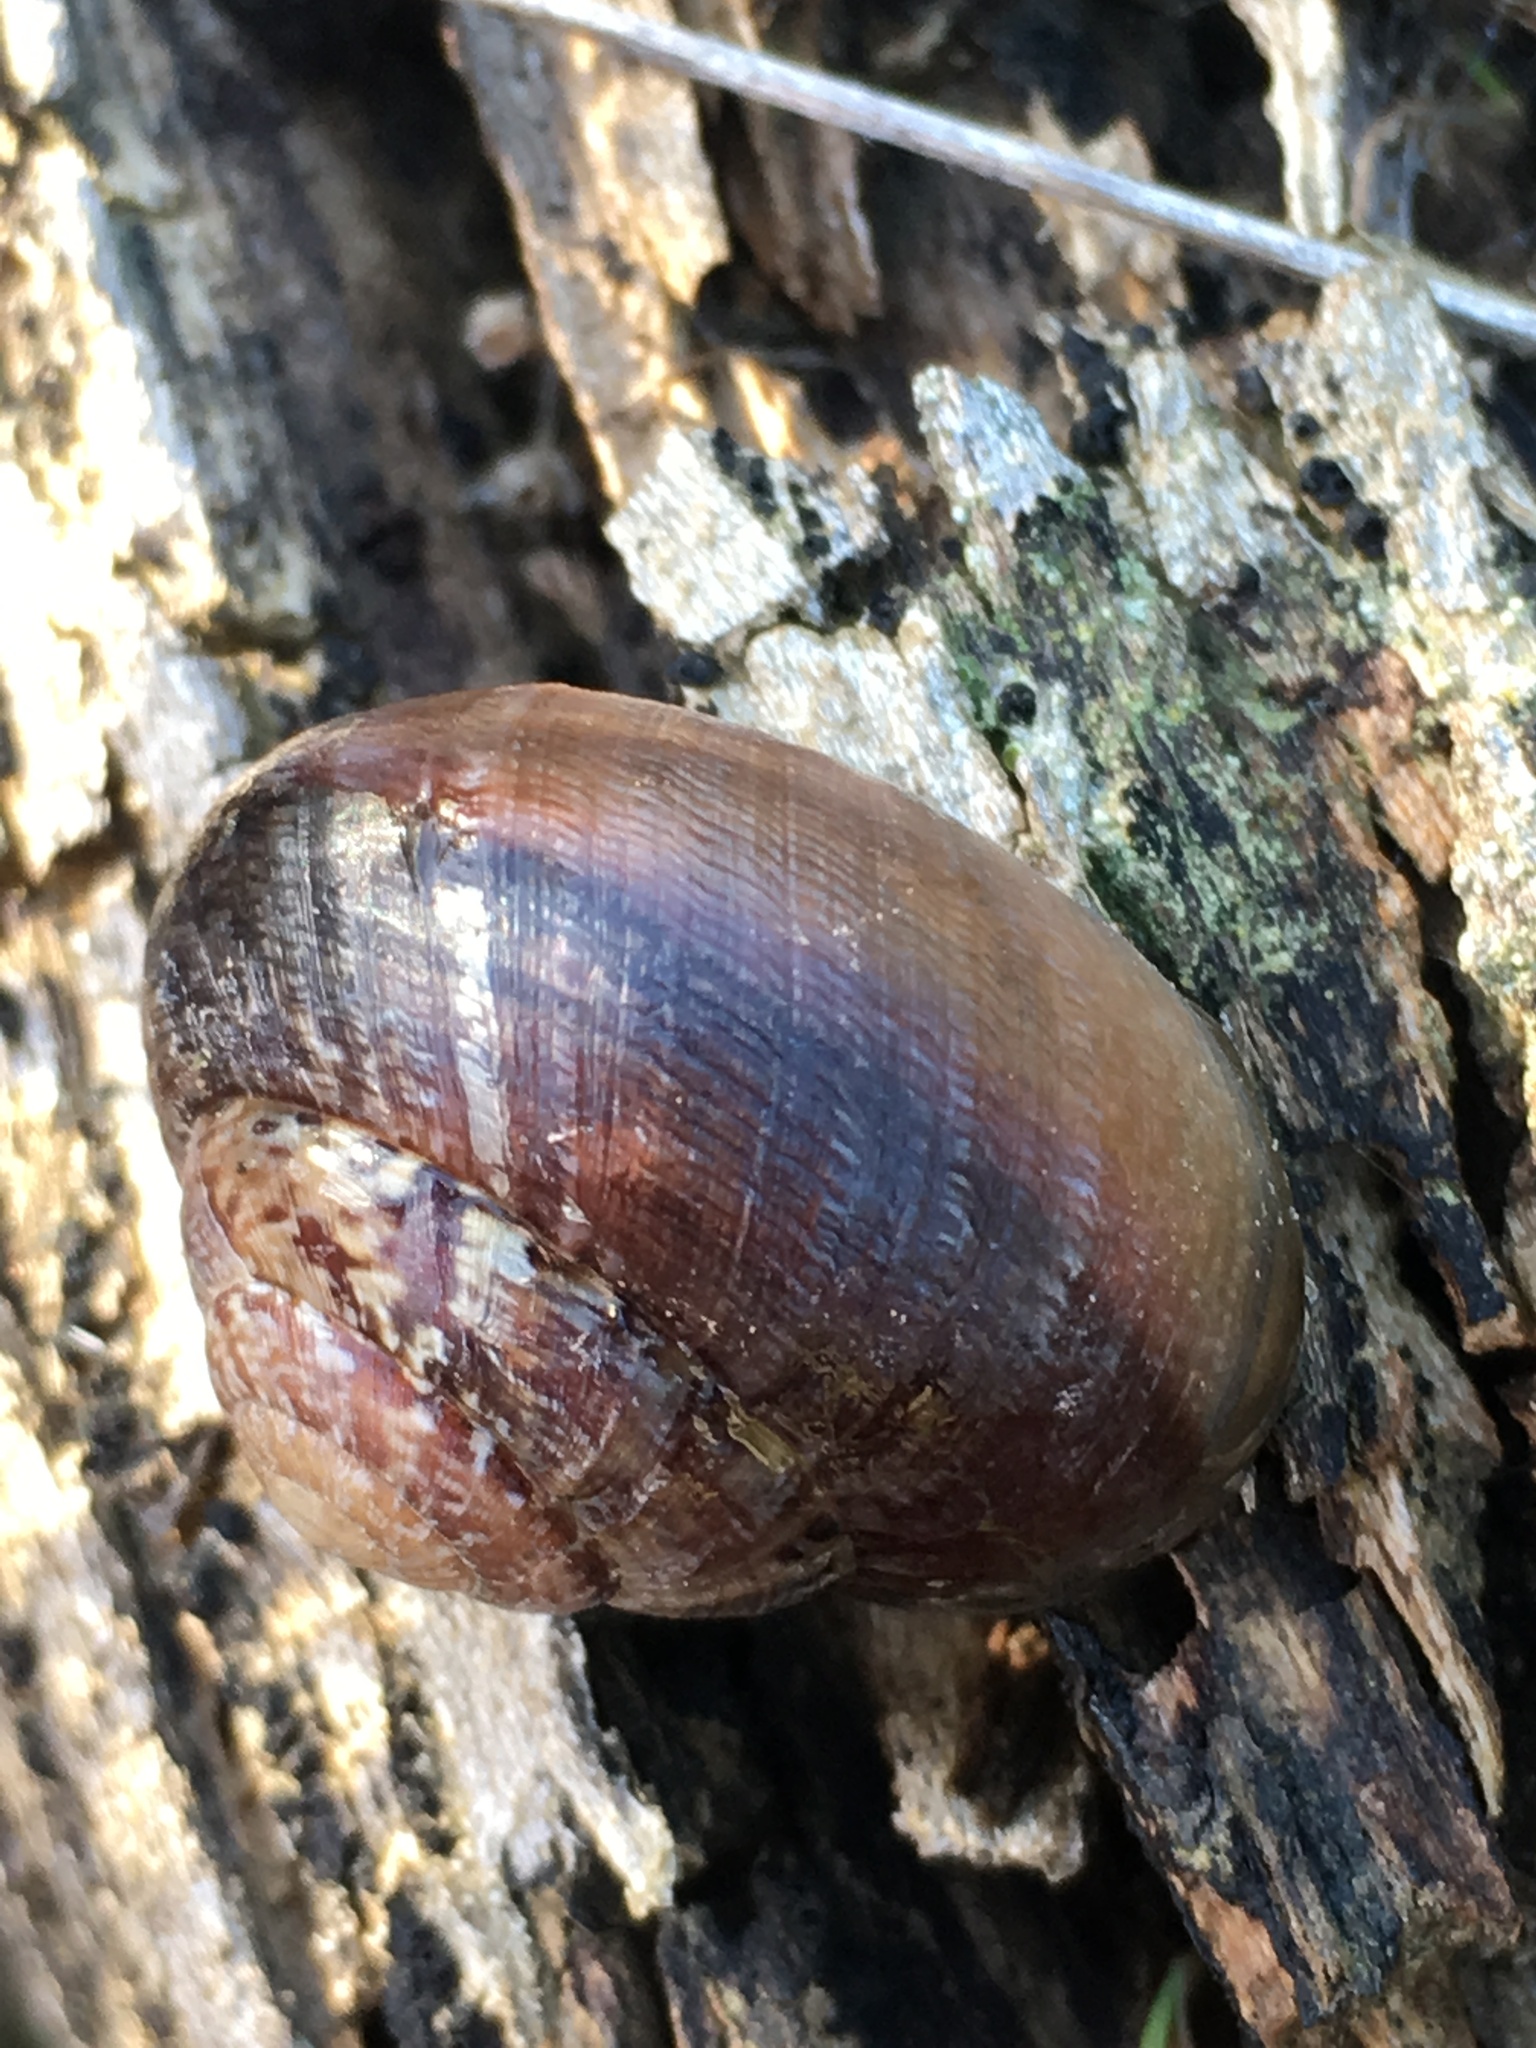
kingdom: Animalia
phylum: Mollusca
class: Gastropoda
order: Stylommatophora
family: Xanthonychidae
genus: Xerarionta
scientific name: Xerarionta tryoni
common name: Bicolor cactus snail
